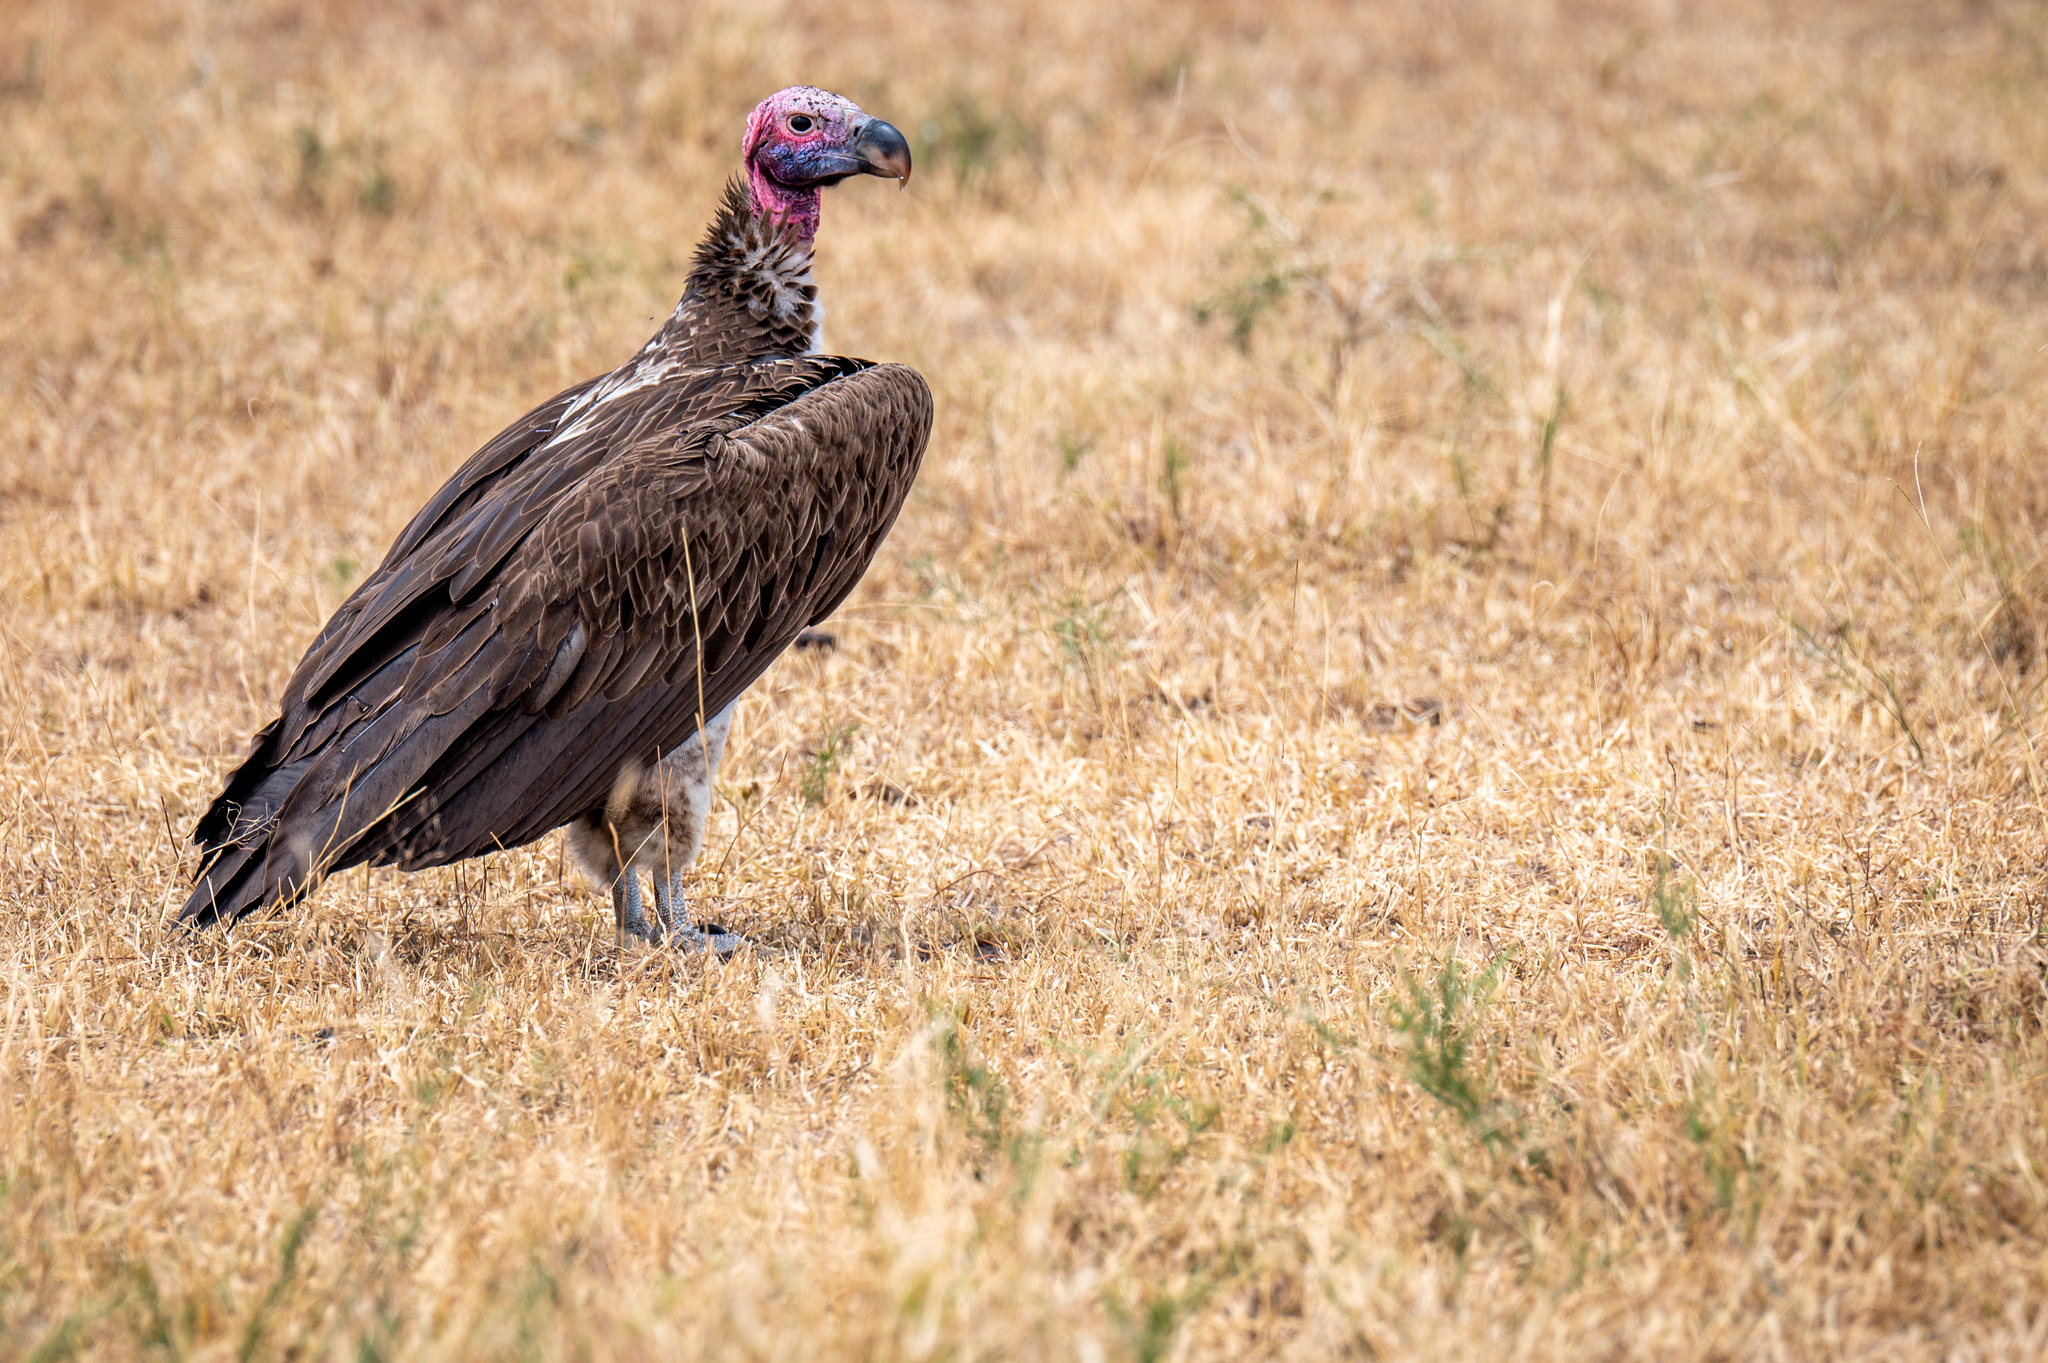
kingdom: Animalia
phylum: Chordata
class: Aves
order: Accipitriformes
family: Accipitridae
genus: Torgos
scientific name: Torgos tracheliotos
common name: Lappet-faced vulture
